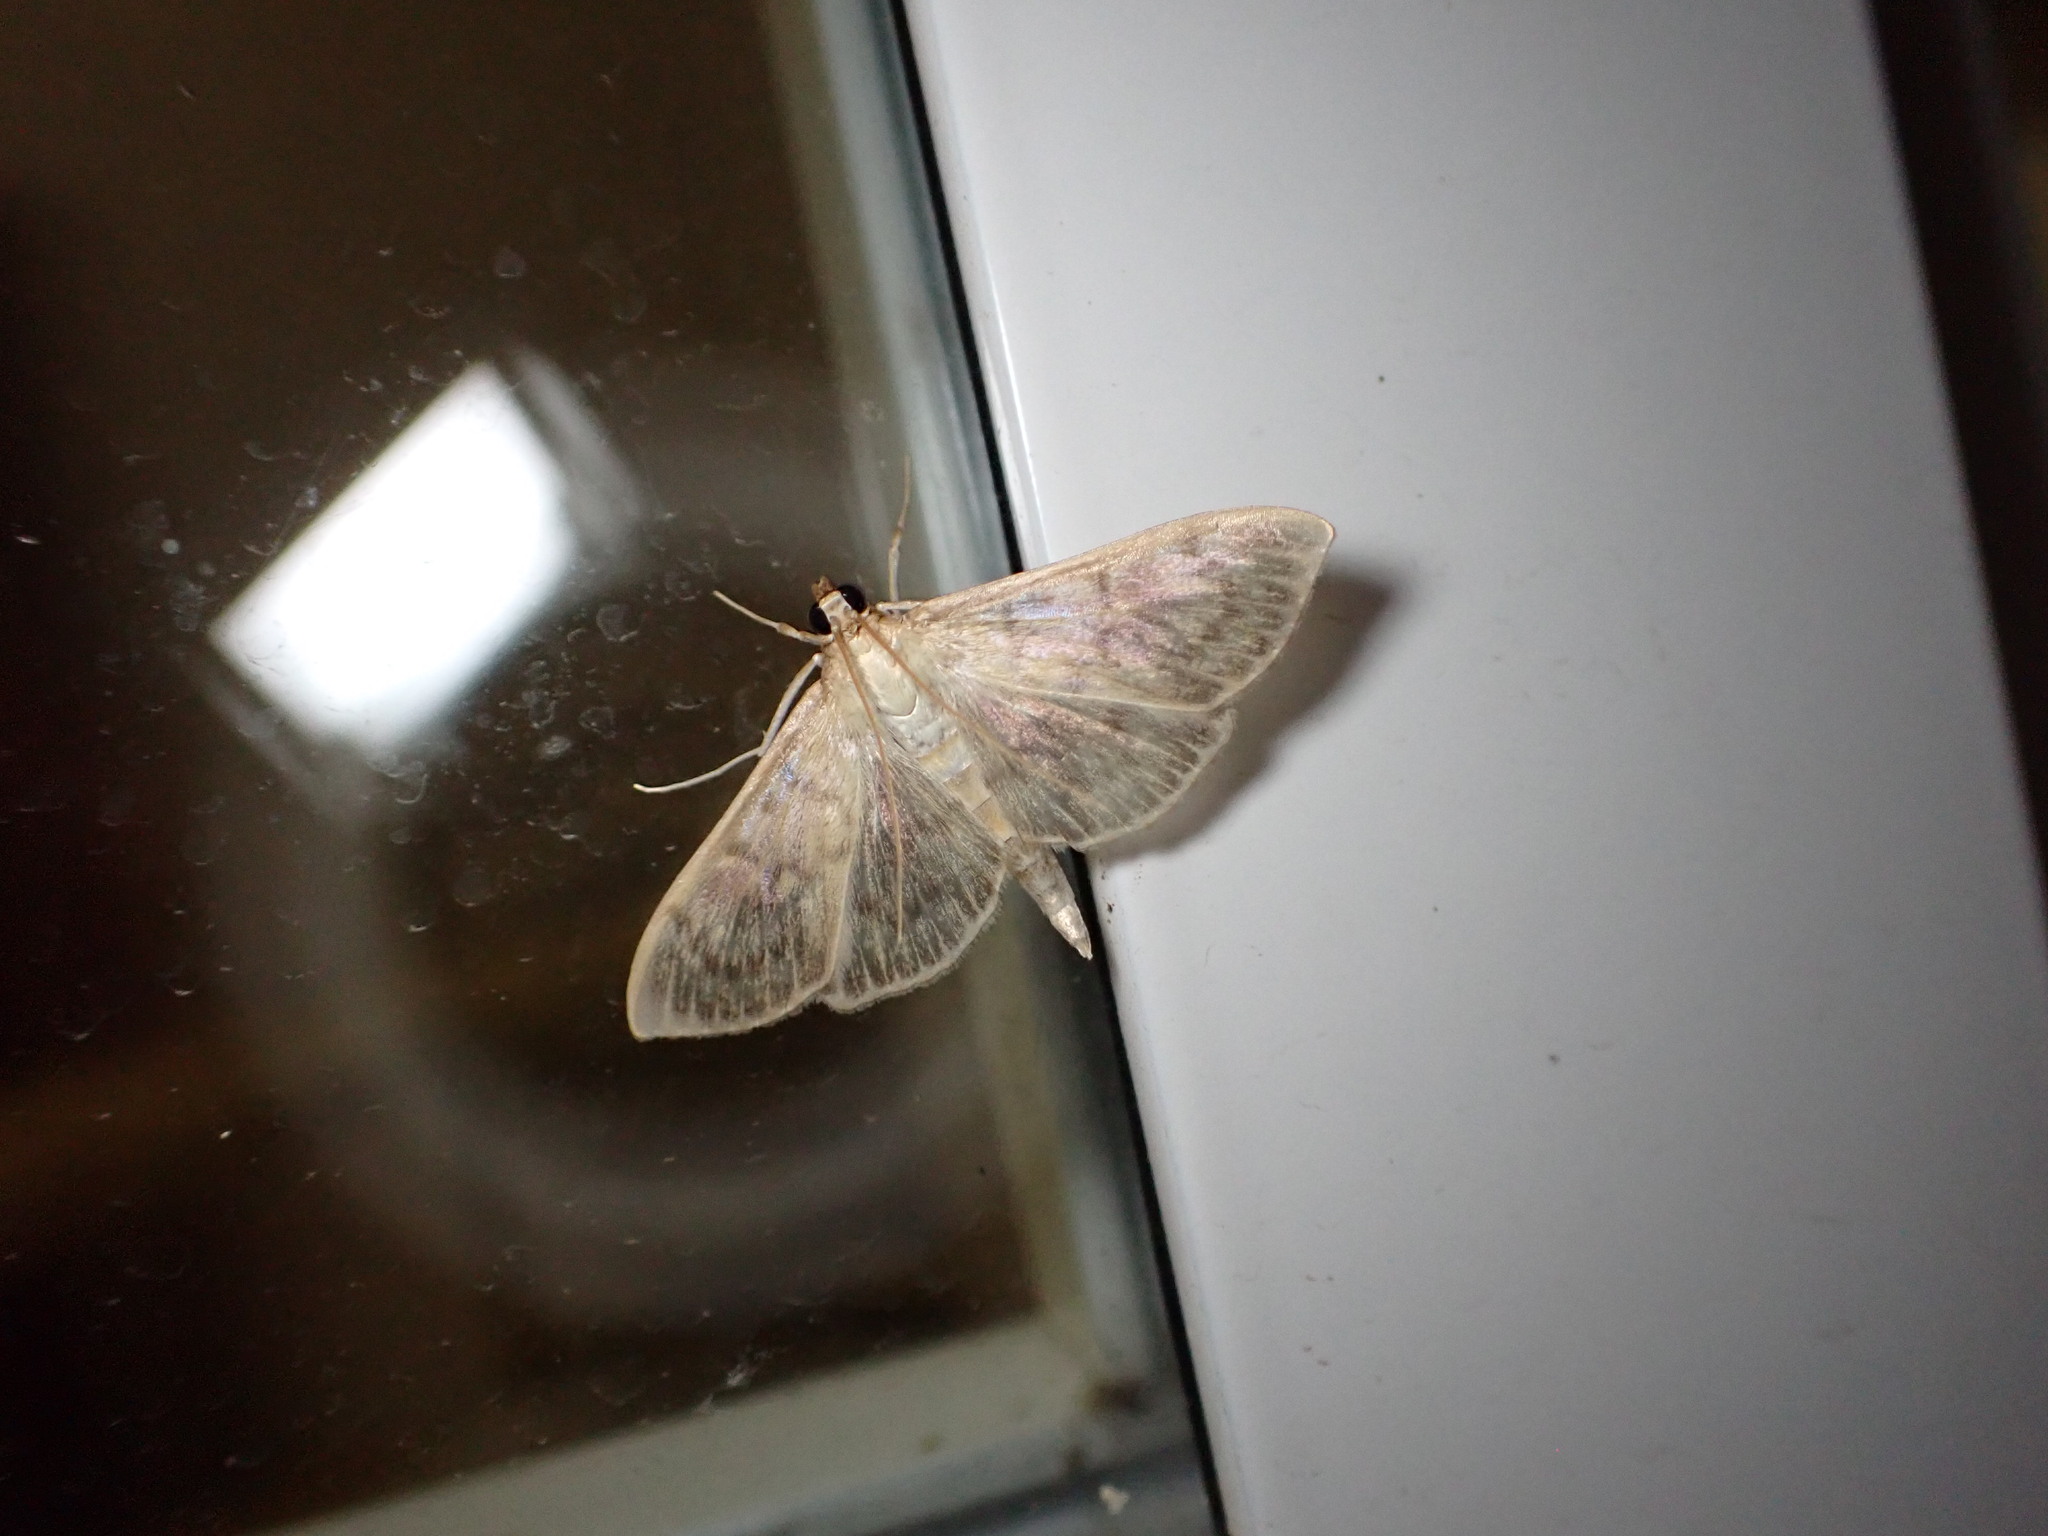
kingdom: Animalia
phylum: Arthropoda
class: Insecta
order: Lepidoptera
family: Crambidae
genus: Patania
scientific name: Patania ruralis
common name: Mother of pearl
